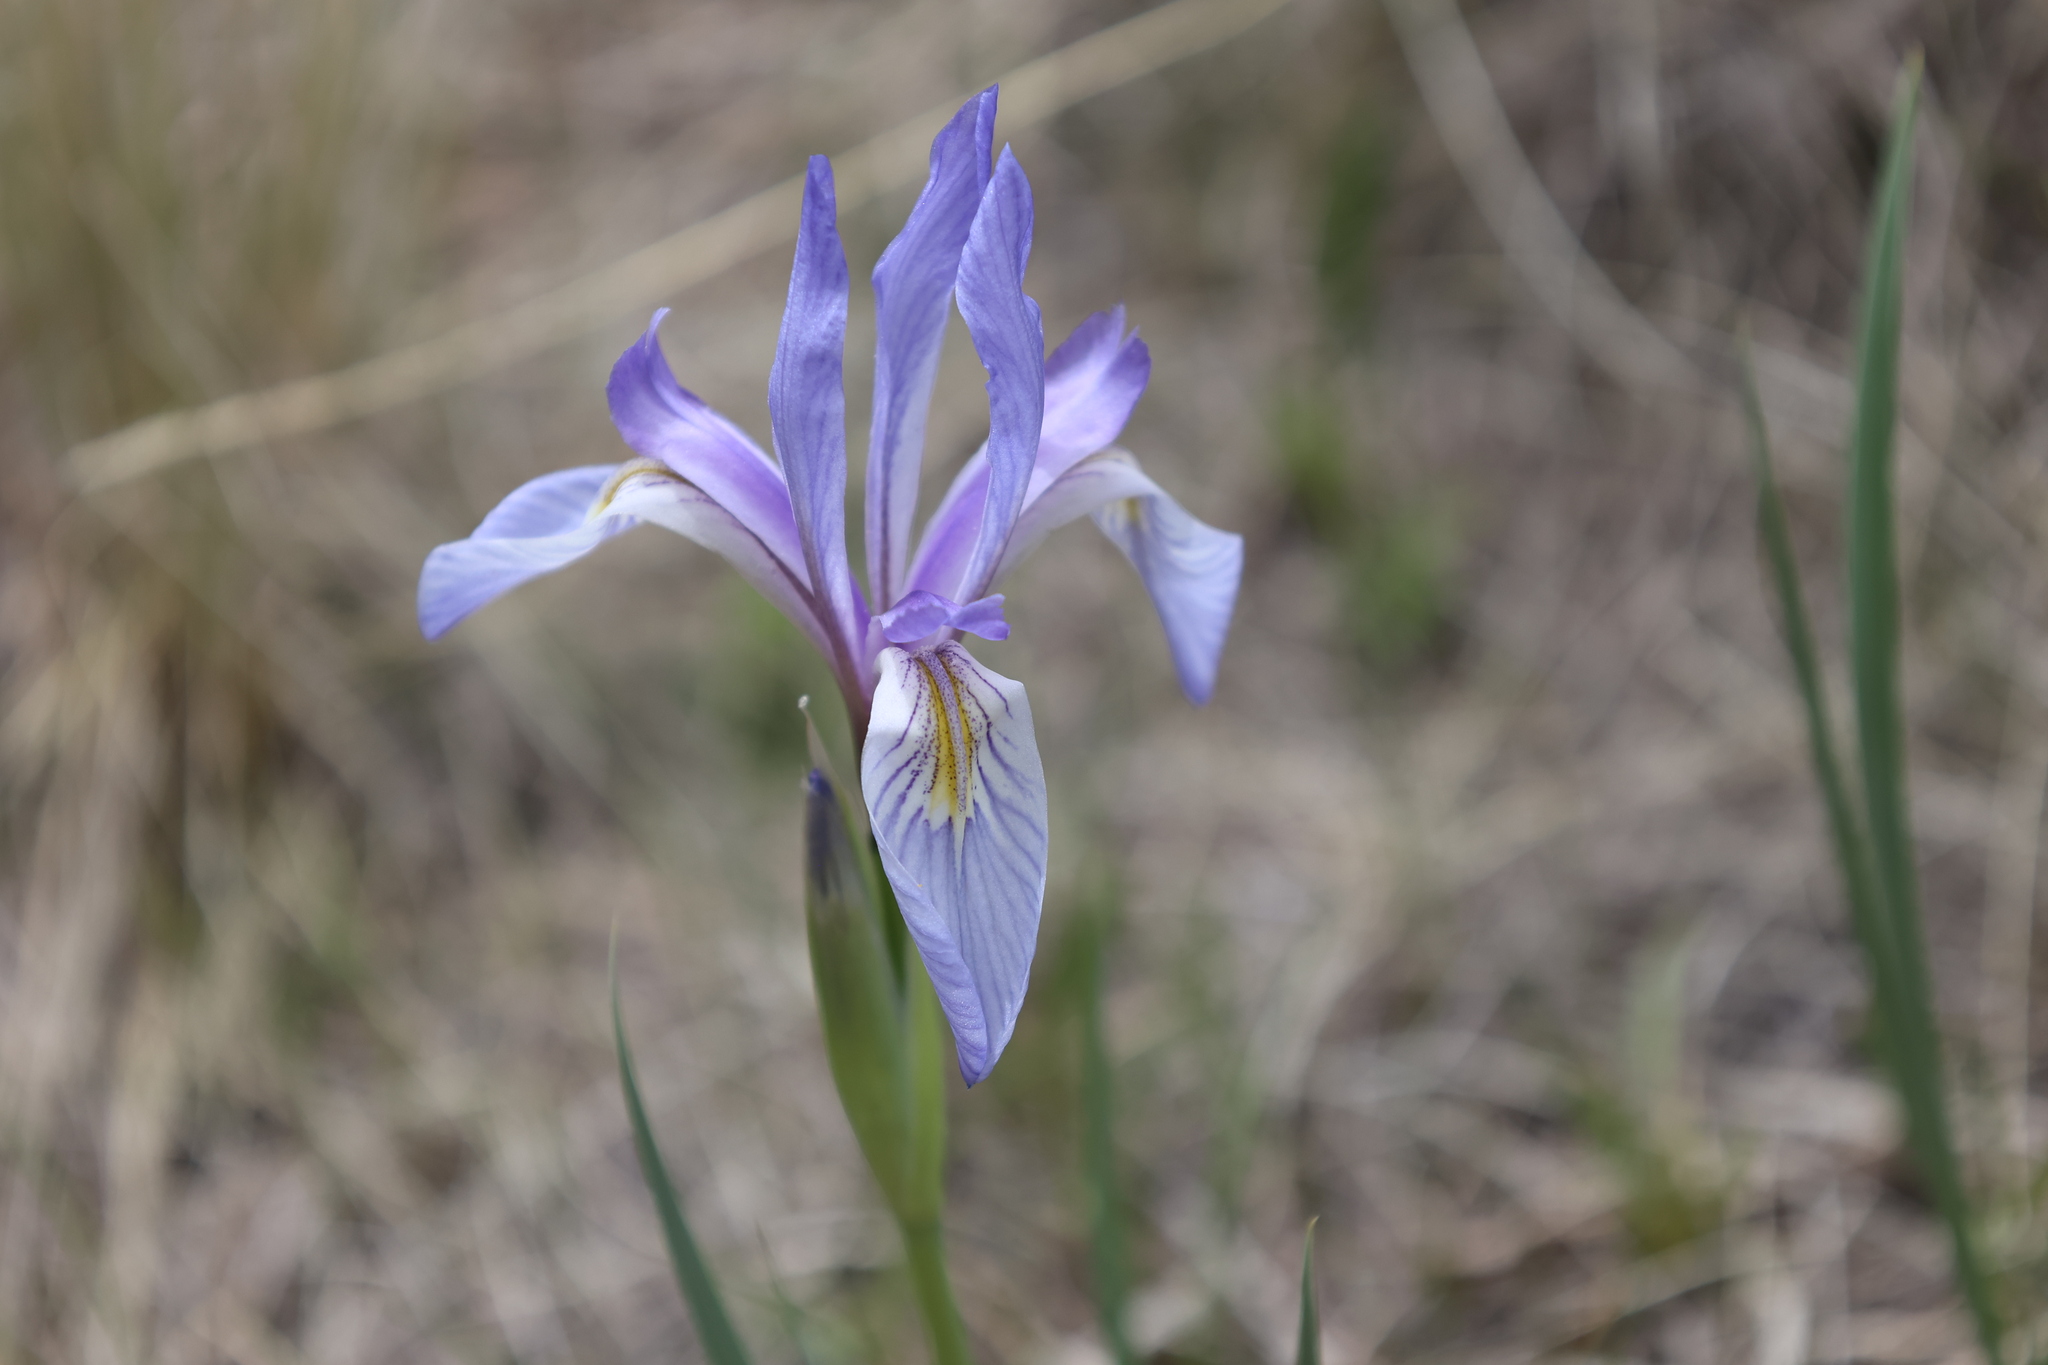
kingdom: Plantae
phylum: Tracheophyta
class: Liliopsida
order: Asparagales
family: Iridaceae
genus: Iris
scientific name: Iris missouriensis
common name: Rocky mountain iris
